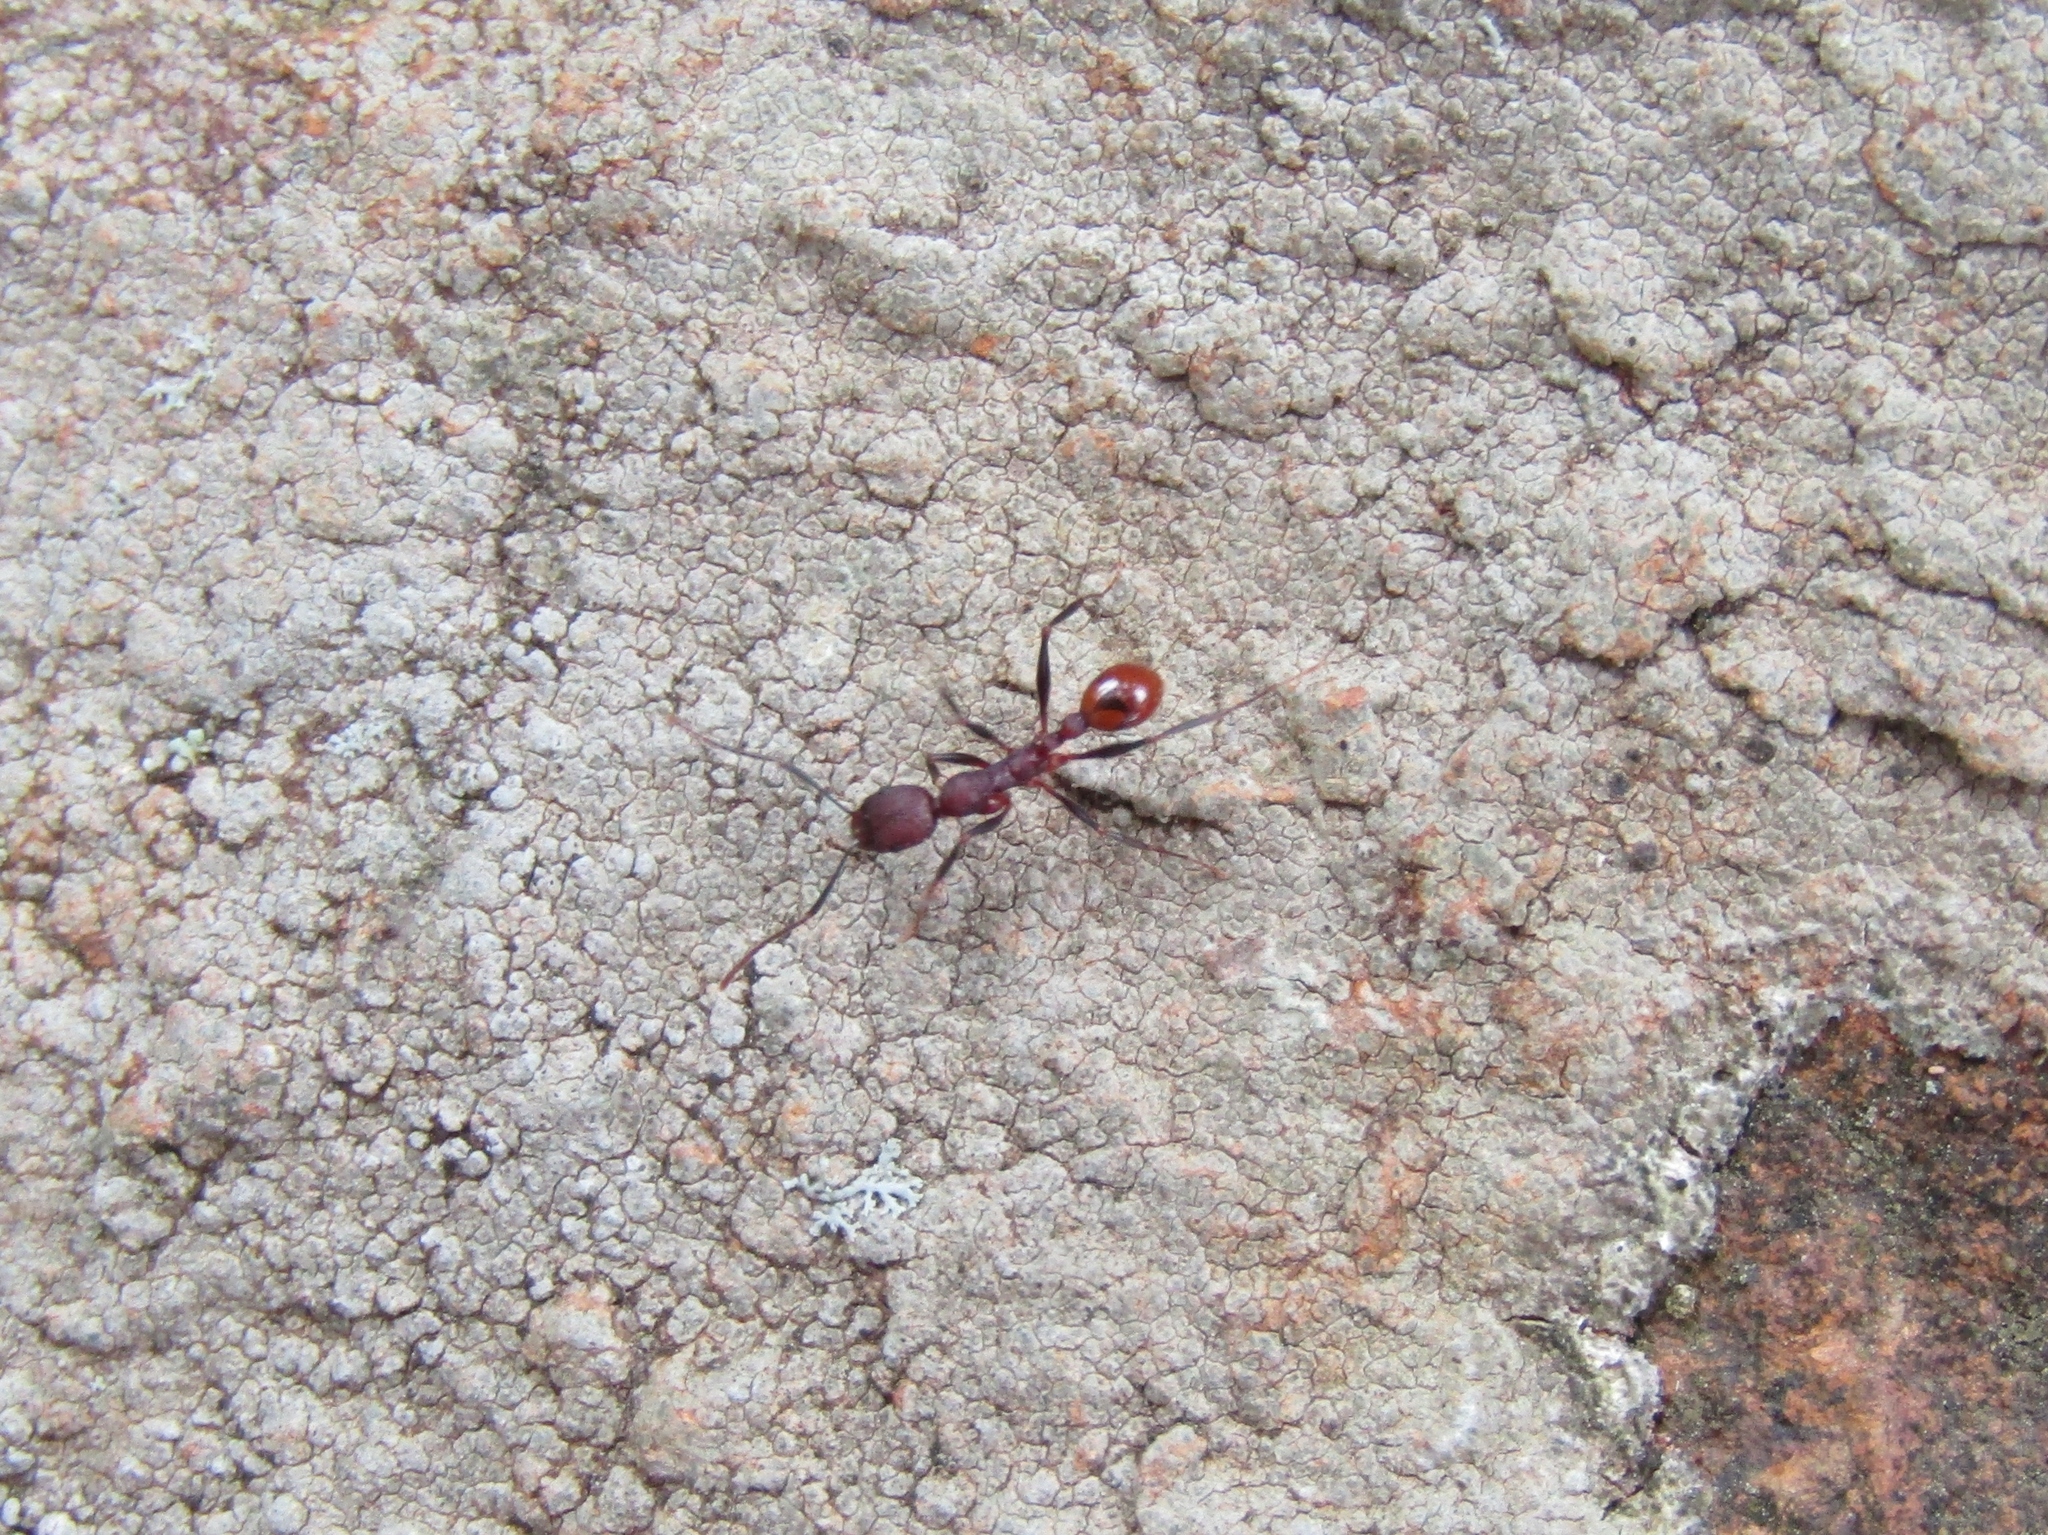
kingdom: Animalia
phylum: Arthropoda
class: Insecta
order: Hymenoptera
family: Formicidae
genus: Aphaenogaster
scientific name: Aphaenogaster lamellidens
